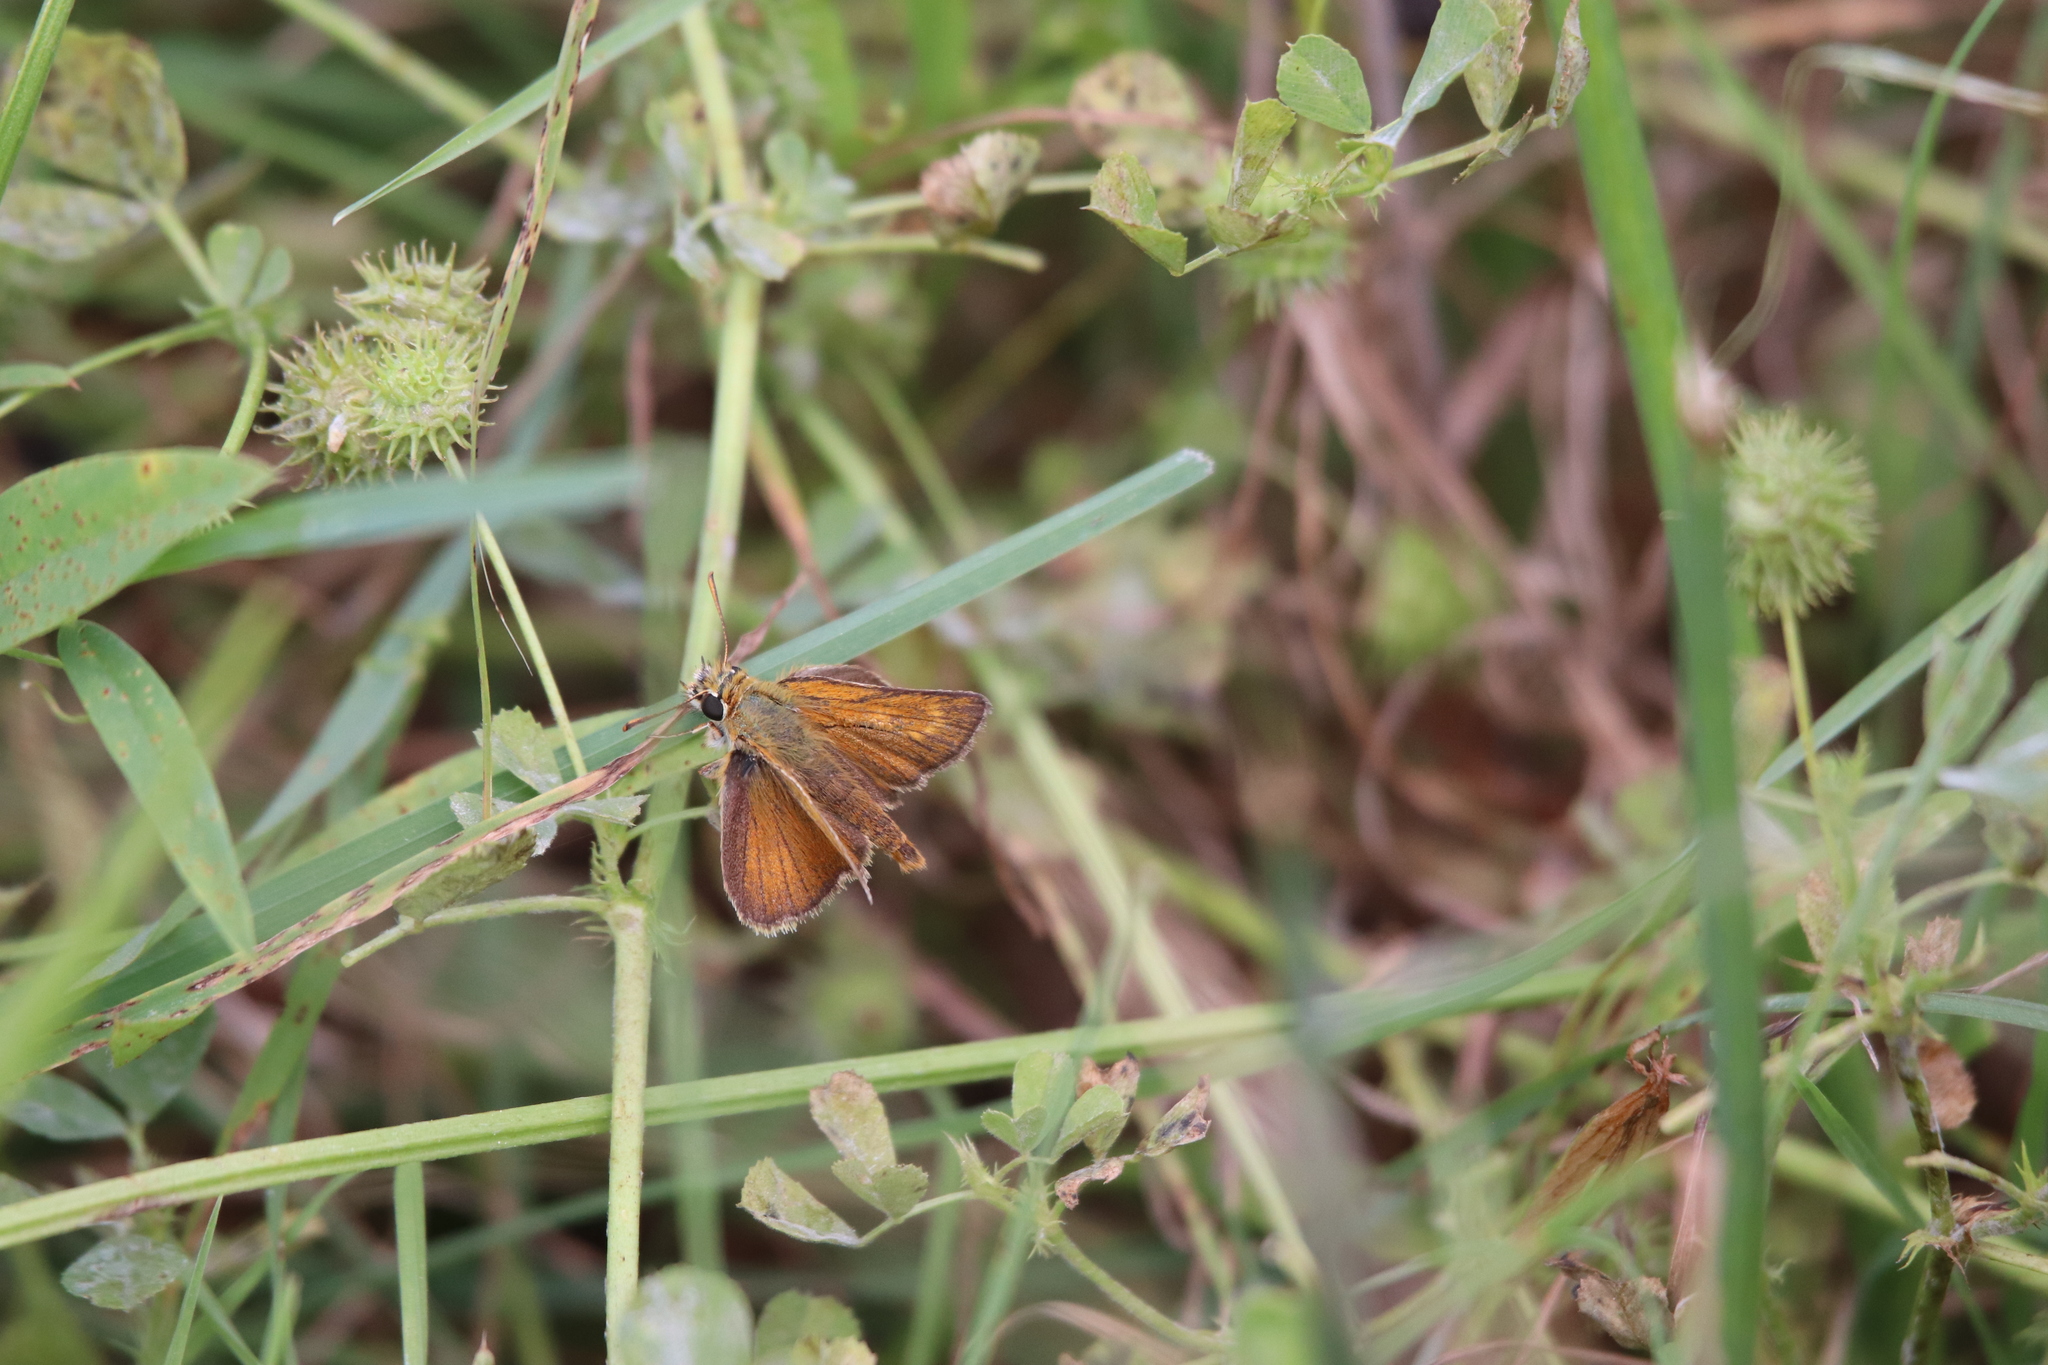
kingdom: Animalia
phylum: Arthropoda
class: Insecta
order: Lepidoptera
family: Hesperiidae
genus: Thymelicus
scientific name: Thymelicus acteon
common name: Lulworth skipper
